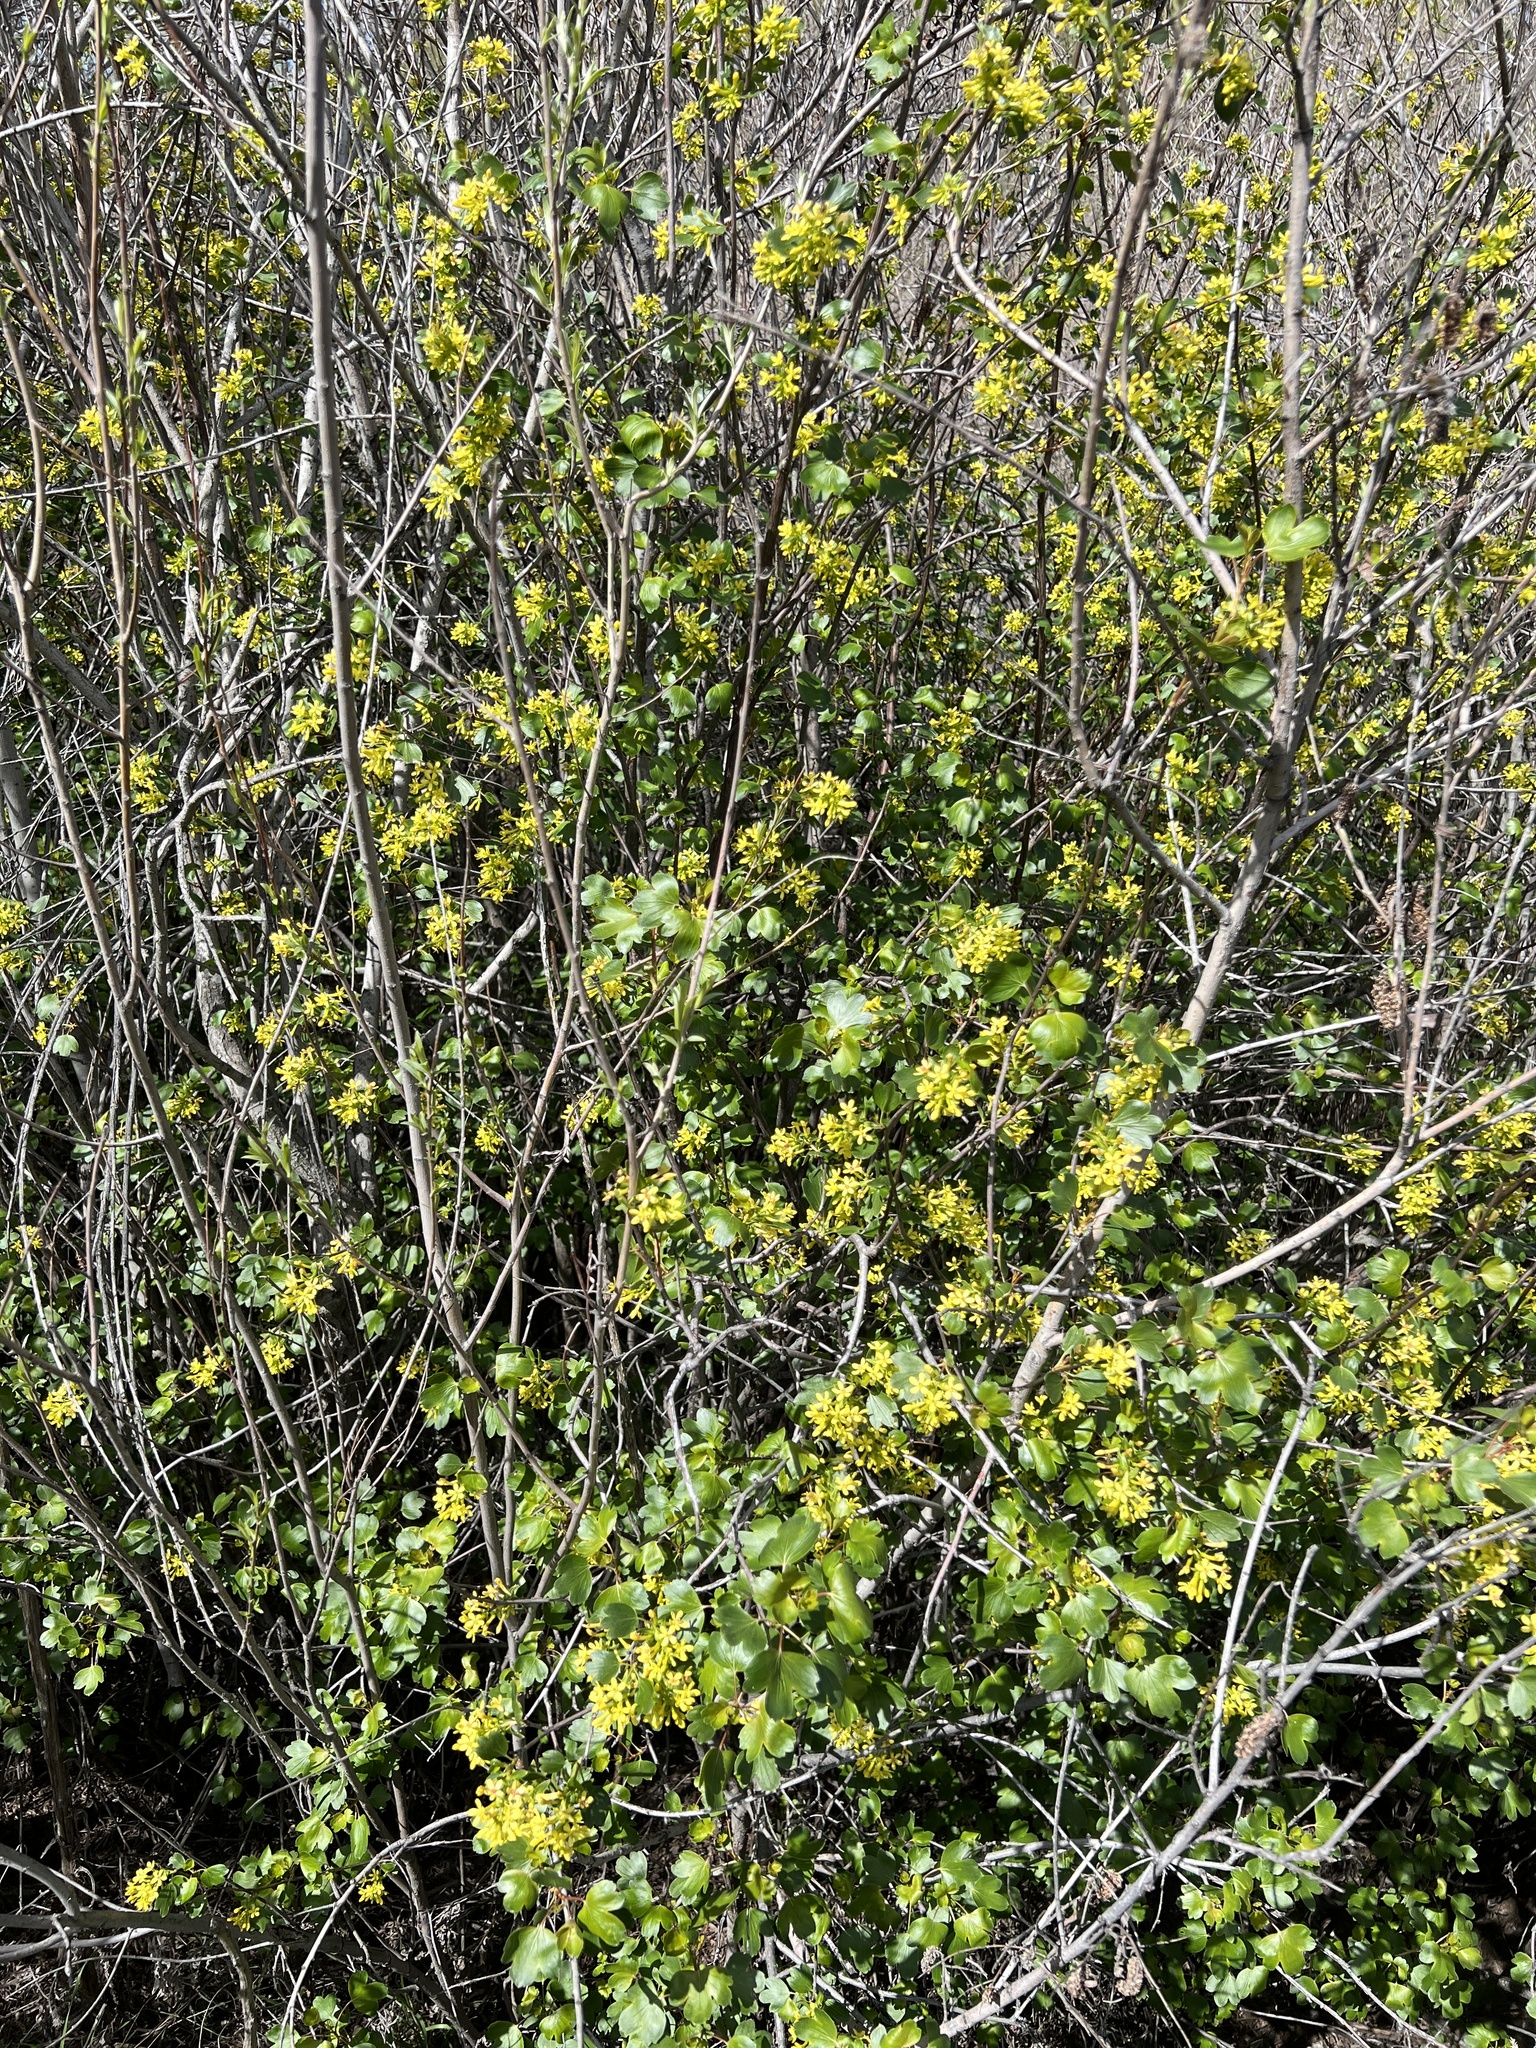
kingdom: Plantae
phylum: Tracheophyta
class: Magnoliopsida
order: Saxifragales
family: Grossulariaceae
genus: Ribes
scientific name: Ribes aureum
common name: Golden currant
